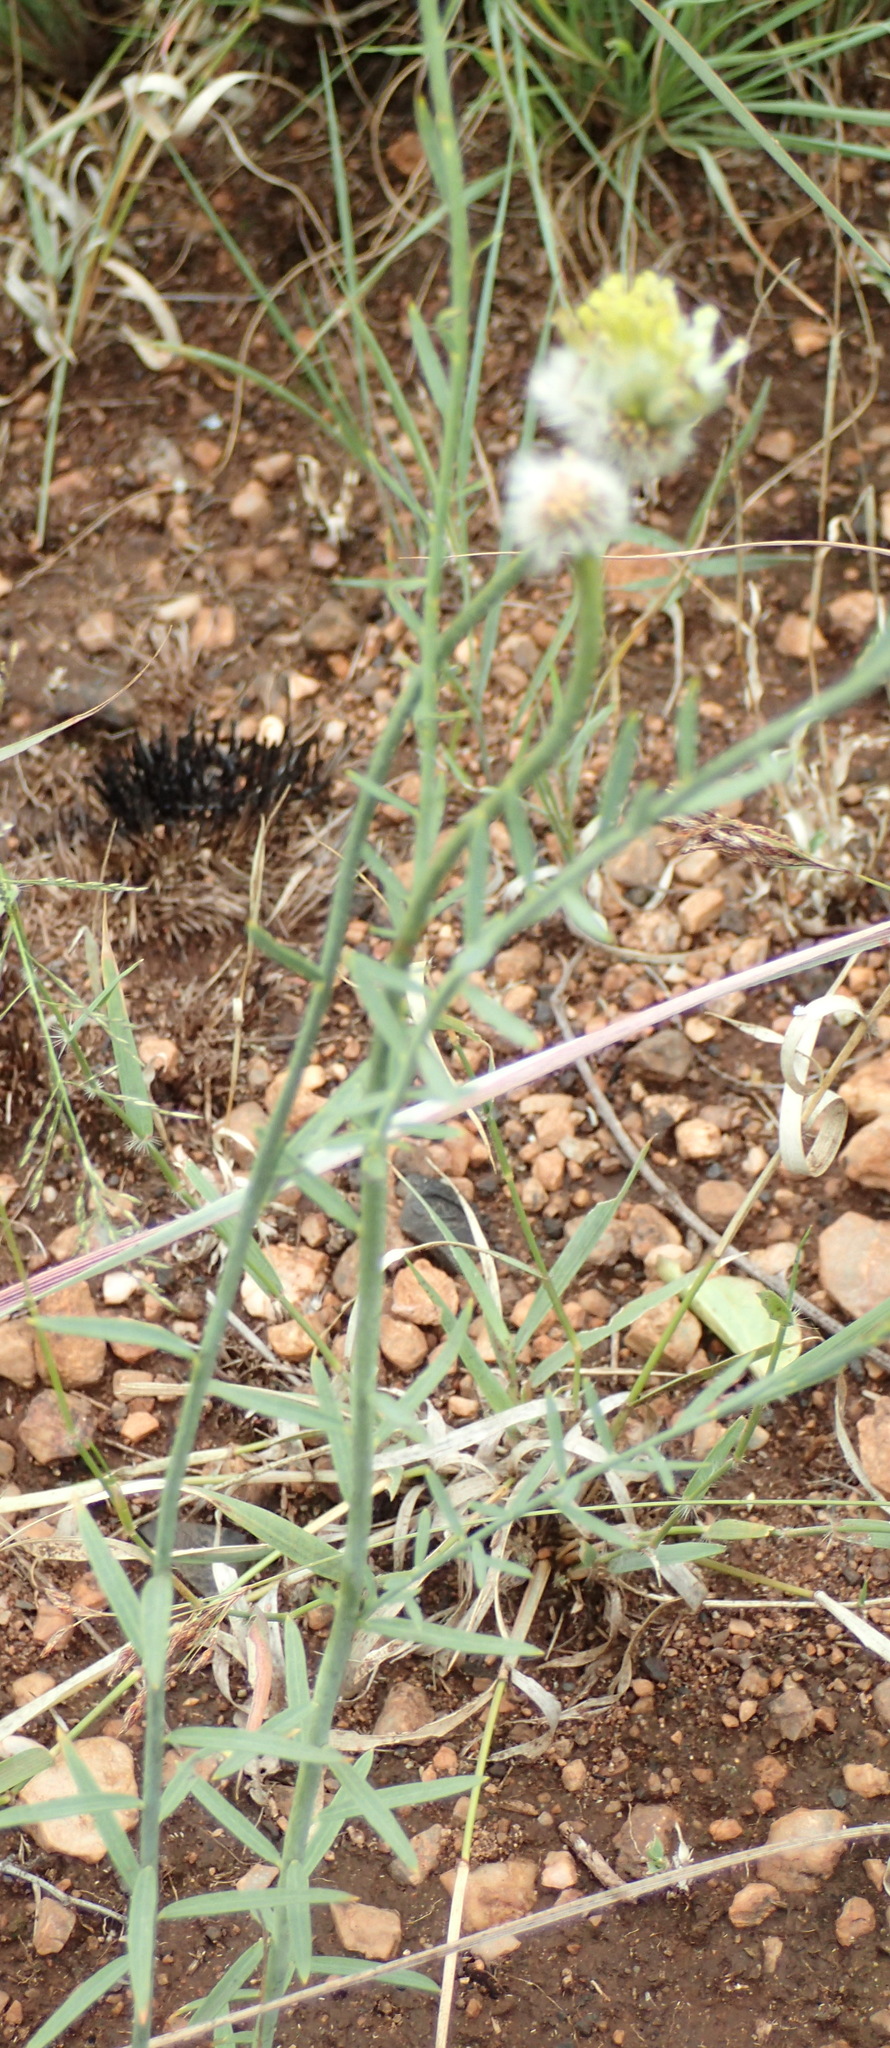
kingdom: Plantae
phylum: Tracheophyta
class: Magnoliopsida
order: Malvales
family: Thymelaeaceae
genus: Gnidia
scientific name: Gnidia sericocephala
